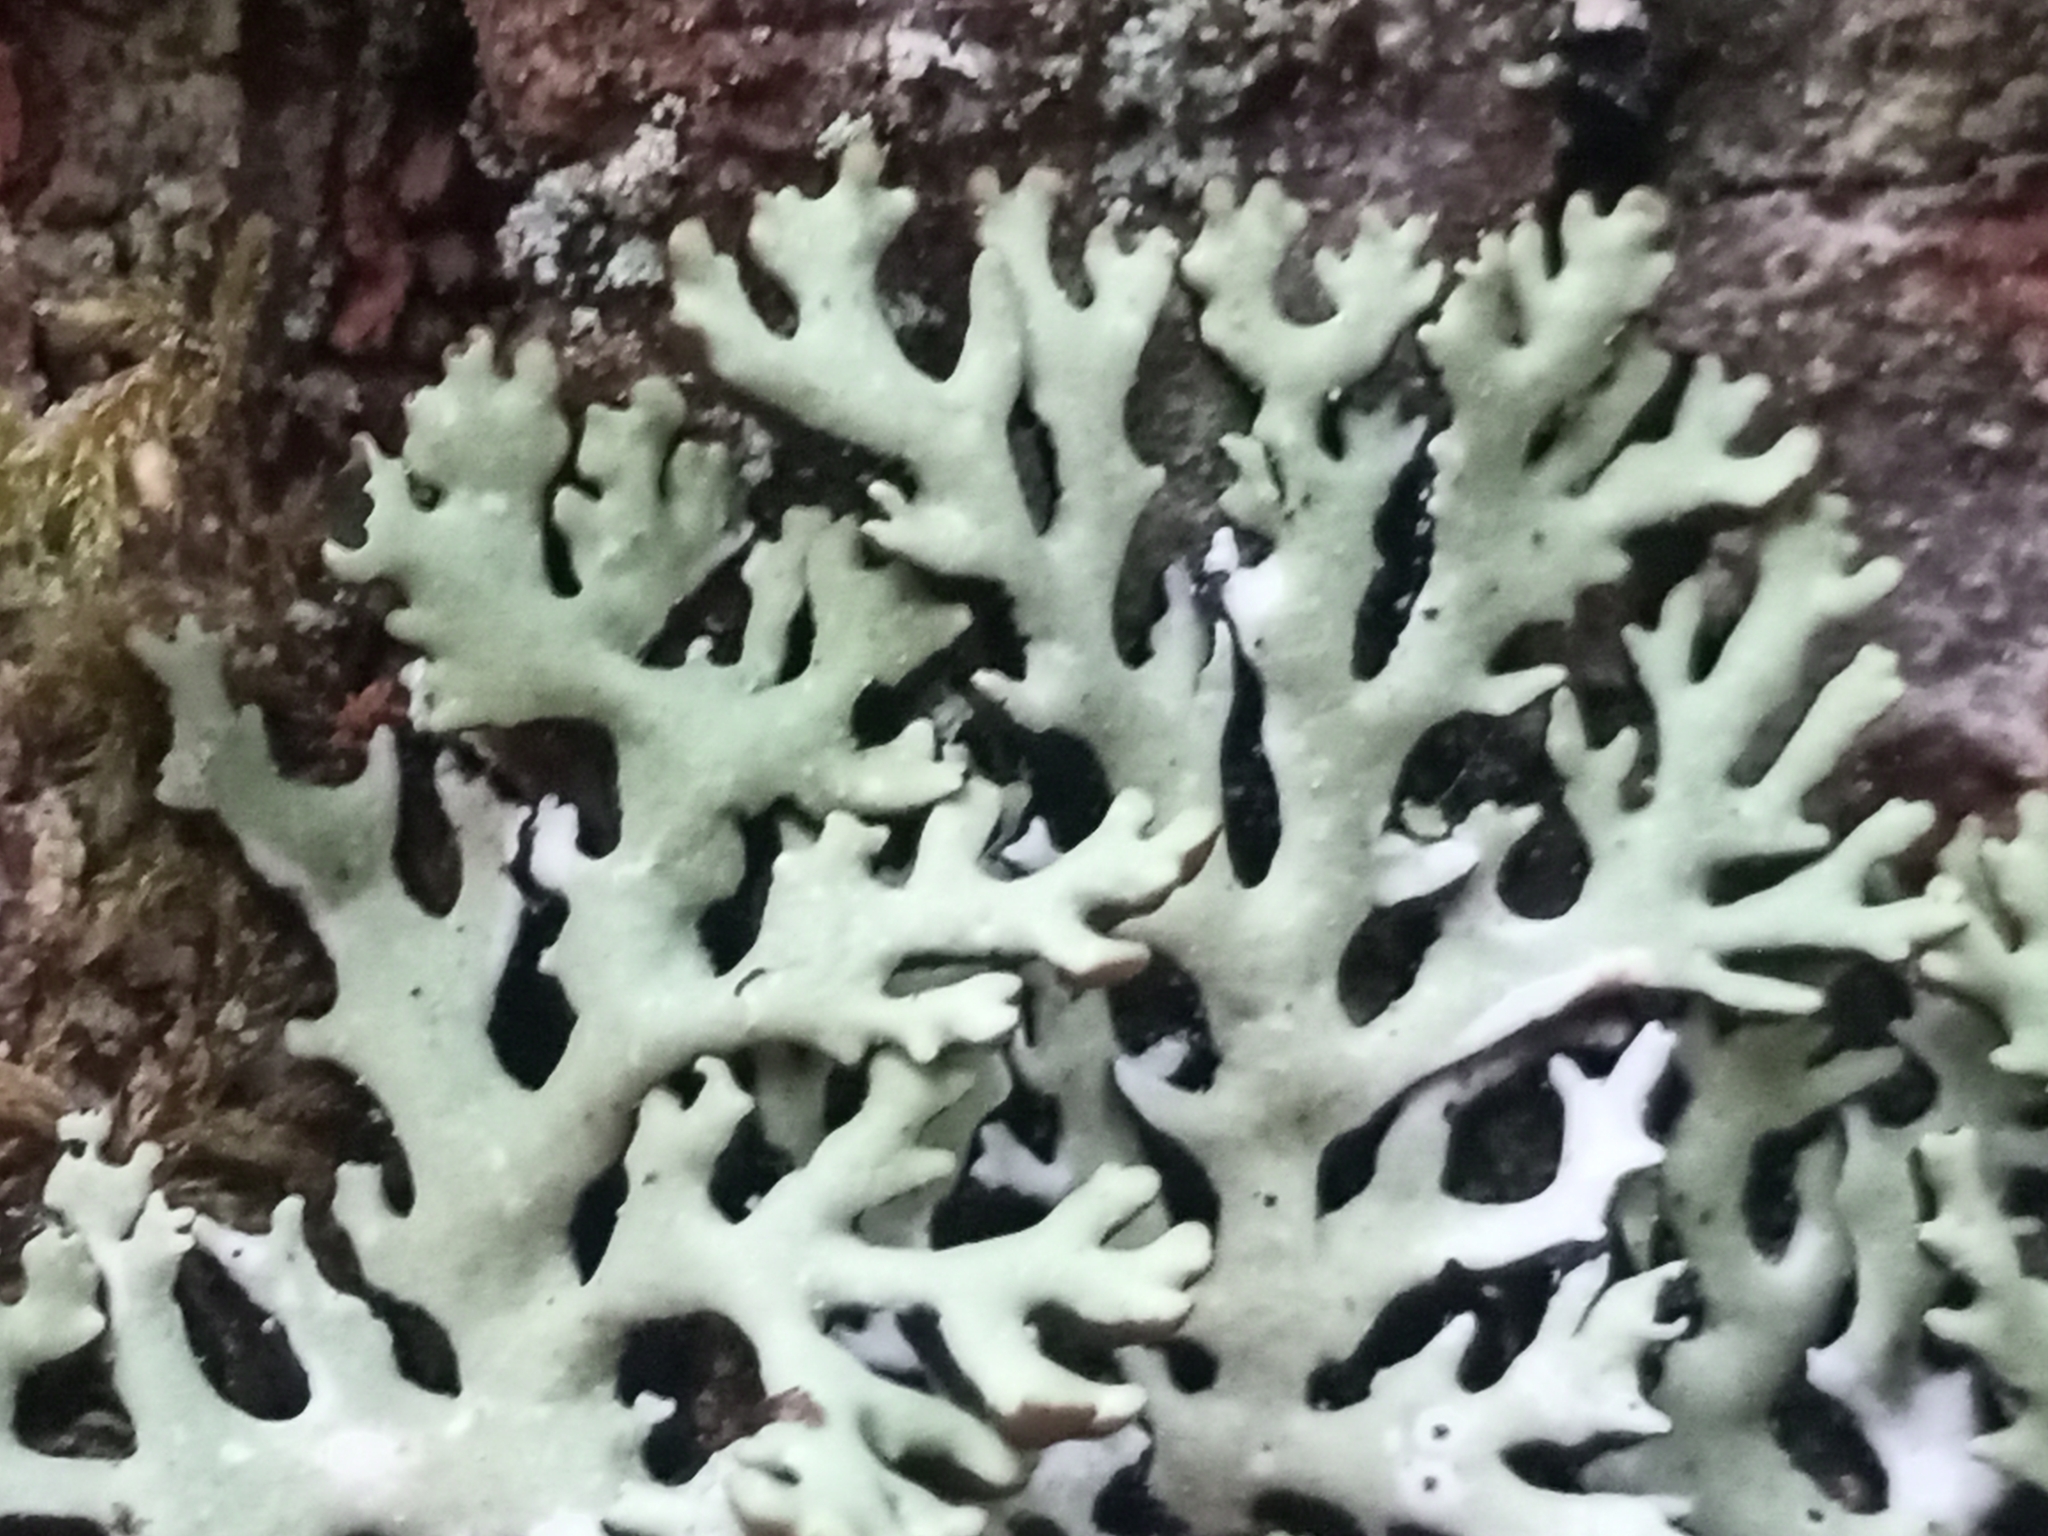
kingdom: Fungi
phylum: Ascomycota
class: Lecanoromycetes
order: Lecanorales
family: Parmeliaceae
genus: Hypogymnia
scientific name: Hypogymnia physodes
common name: Dark crottle
